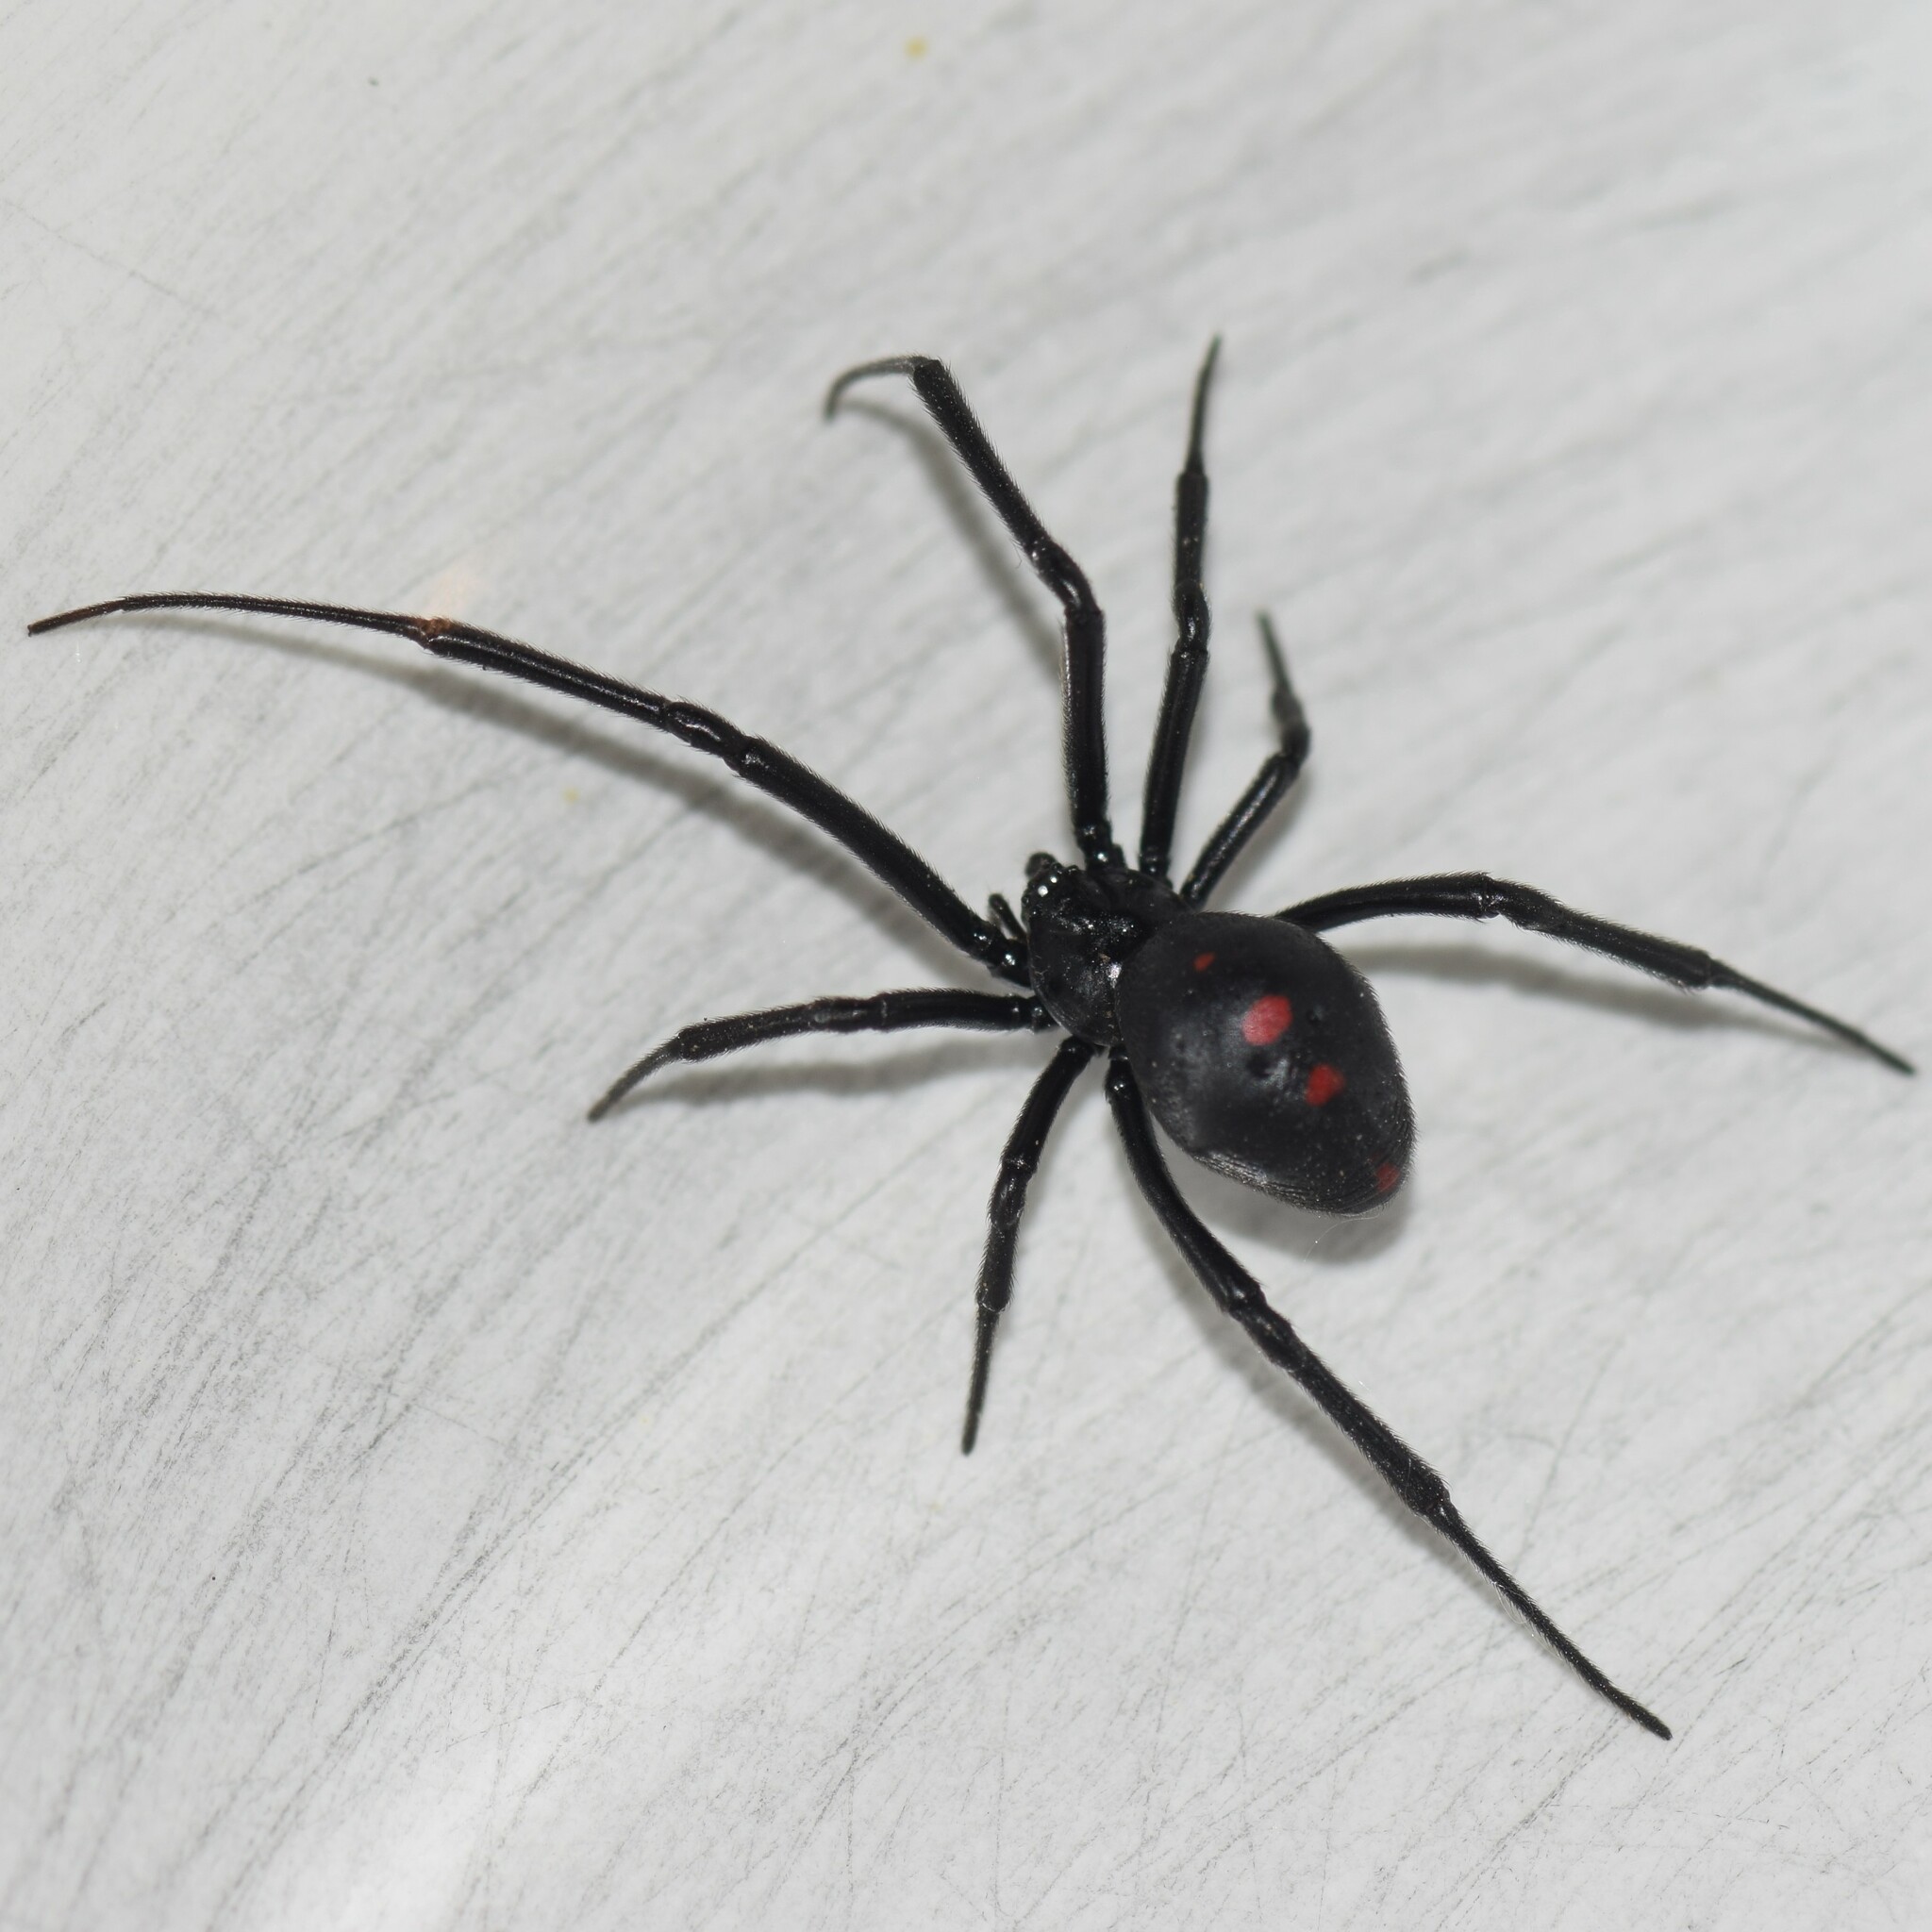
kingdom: Animalia
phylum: Arthropoda
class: Arachnida
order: Araneae
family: Theridiidae
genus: Latrodectus
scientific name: Latrodectus variolus
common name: Northern black widow
